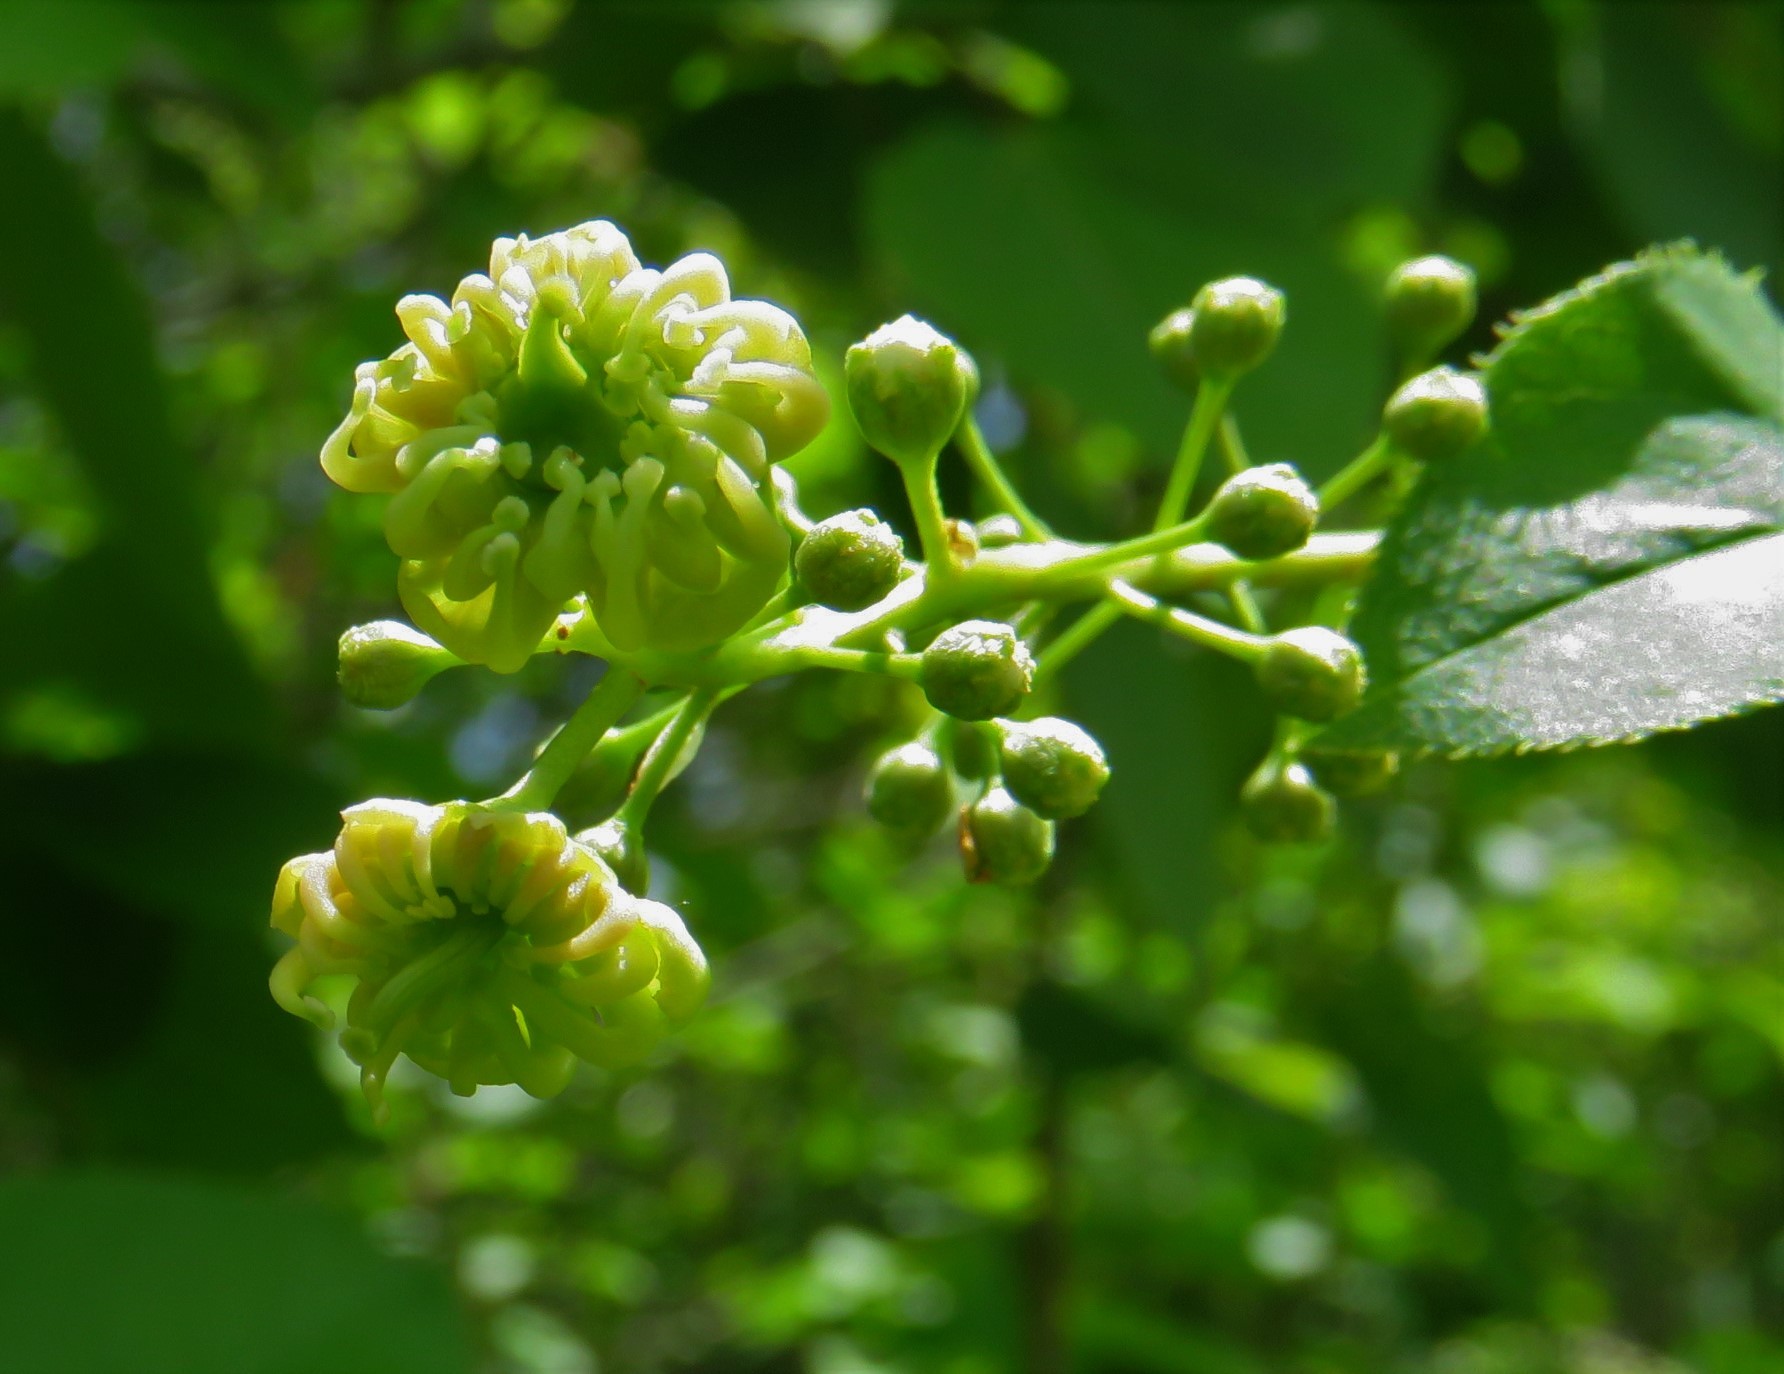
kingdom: Fungi
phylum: Ascomycota
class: Taphrinomycetes
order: Taphrinales
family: Taphrinaceae
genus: Taphrina
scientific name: Taphrina confusa
